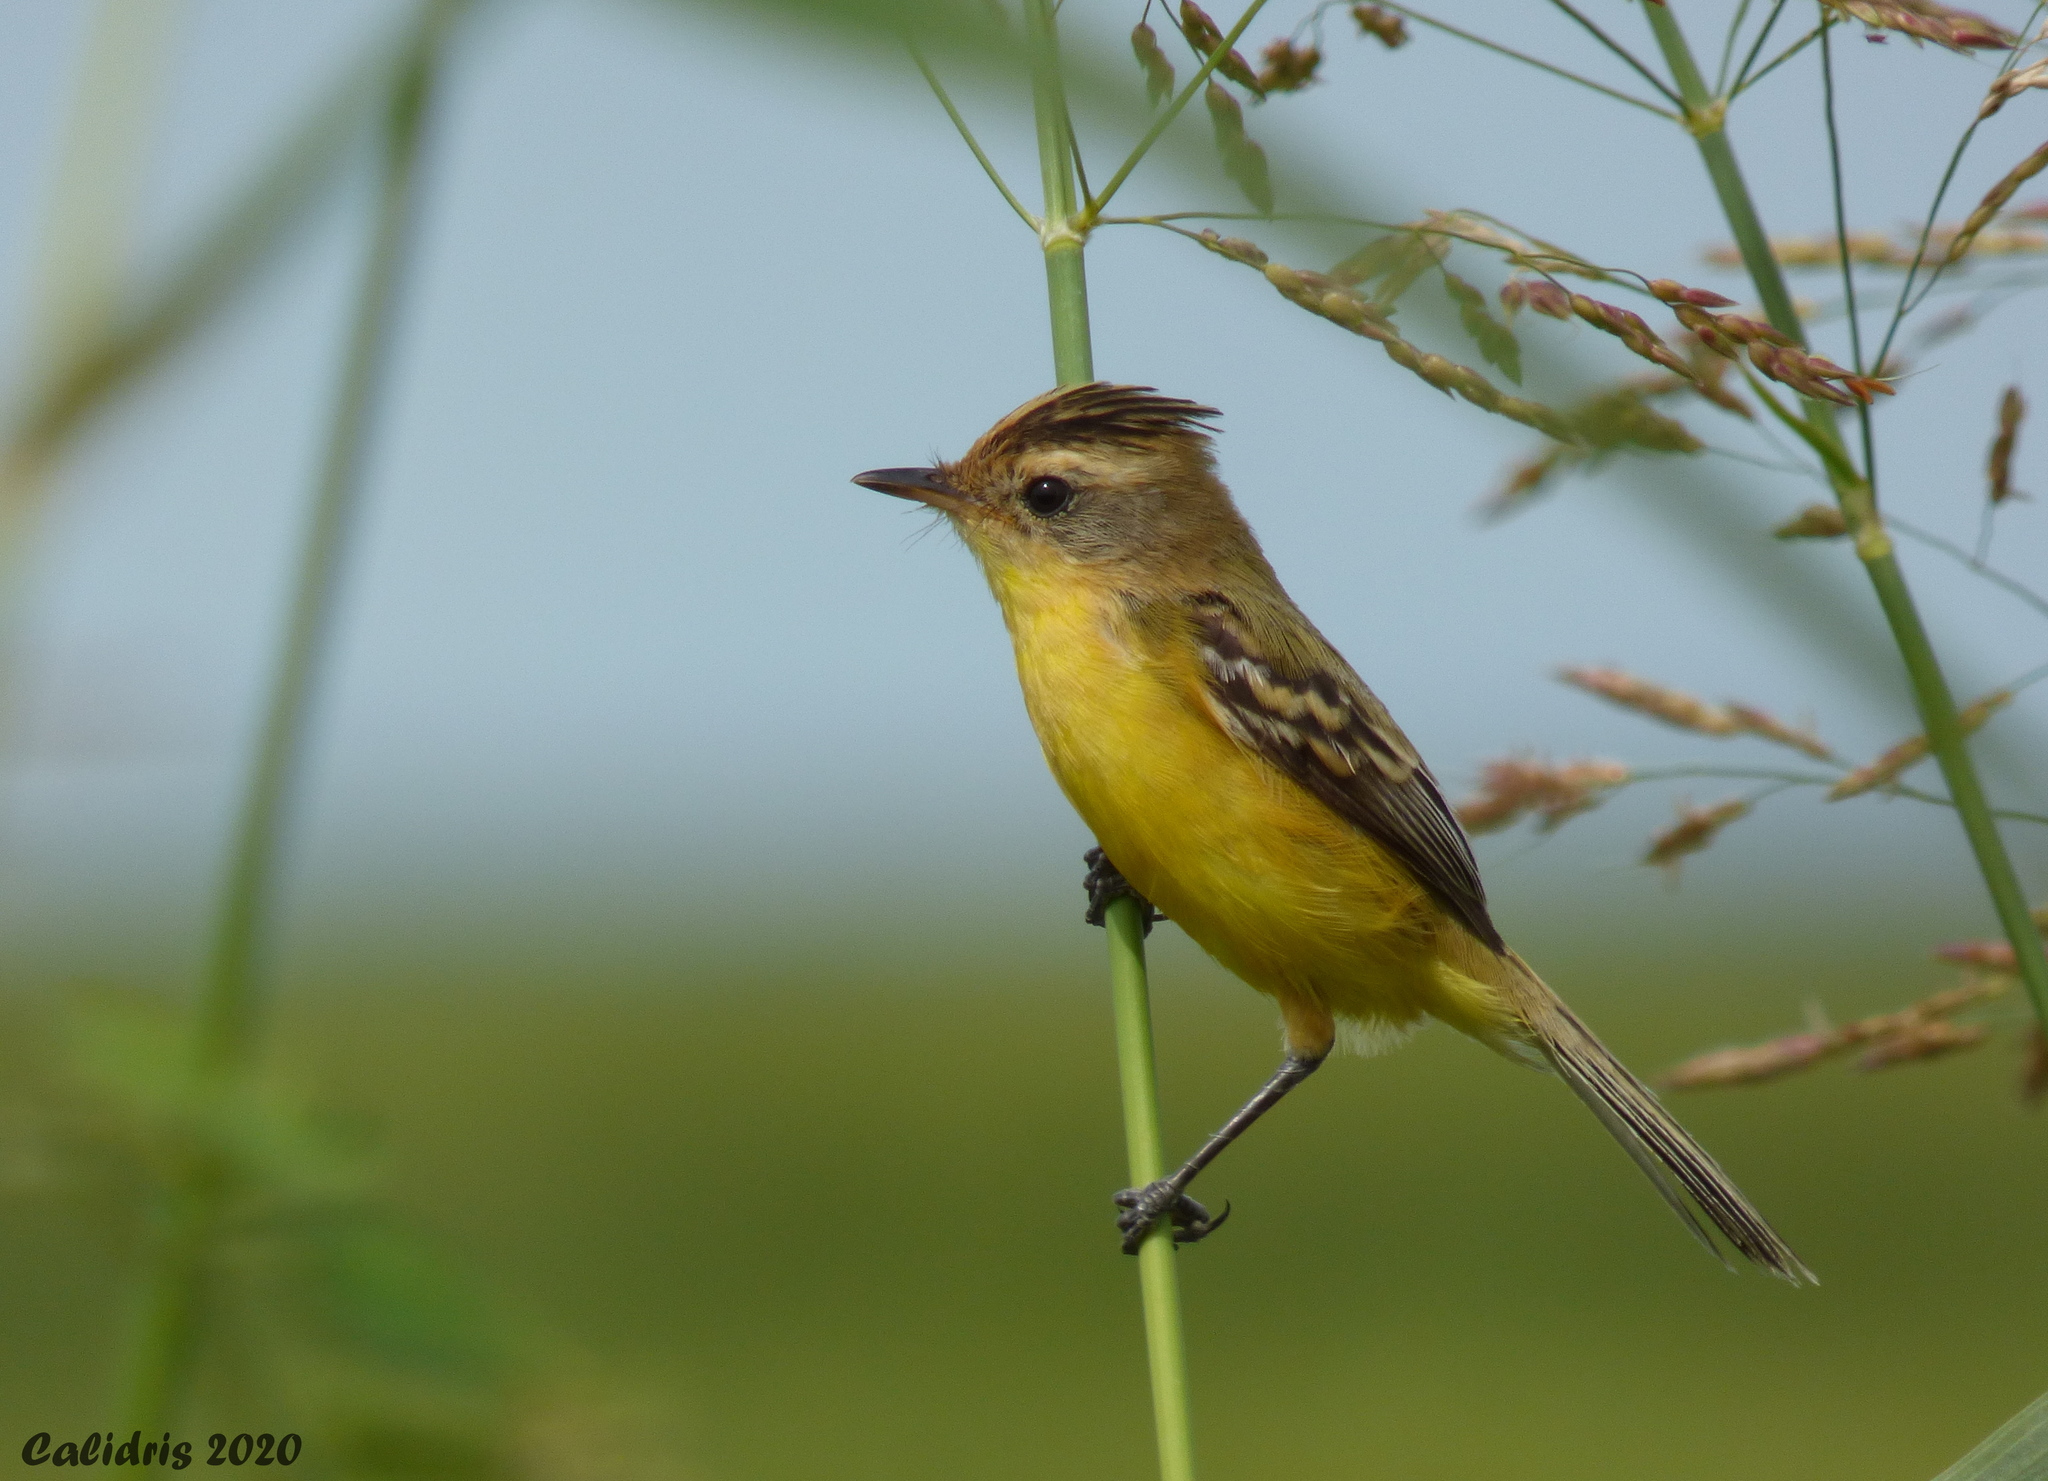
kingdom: Animalia
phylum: Chordata
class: Aves
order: Passeriformes
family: Tyrannidae
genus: Pseudocolopteryx
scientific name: Pseudocolopteryx sclateri
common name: Crested doradito
